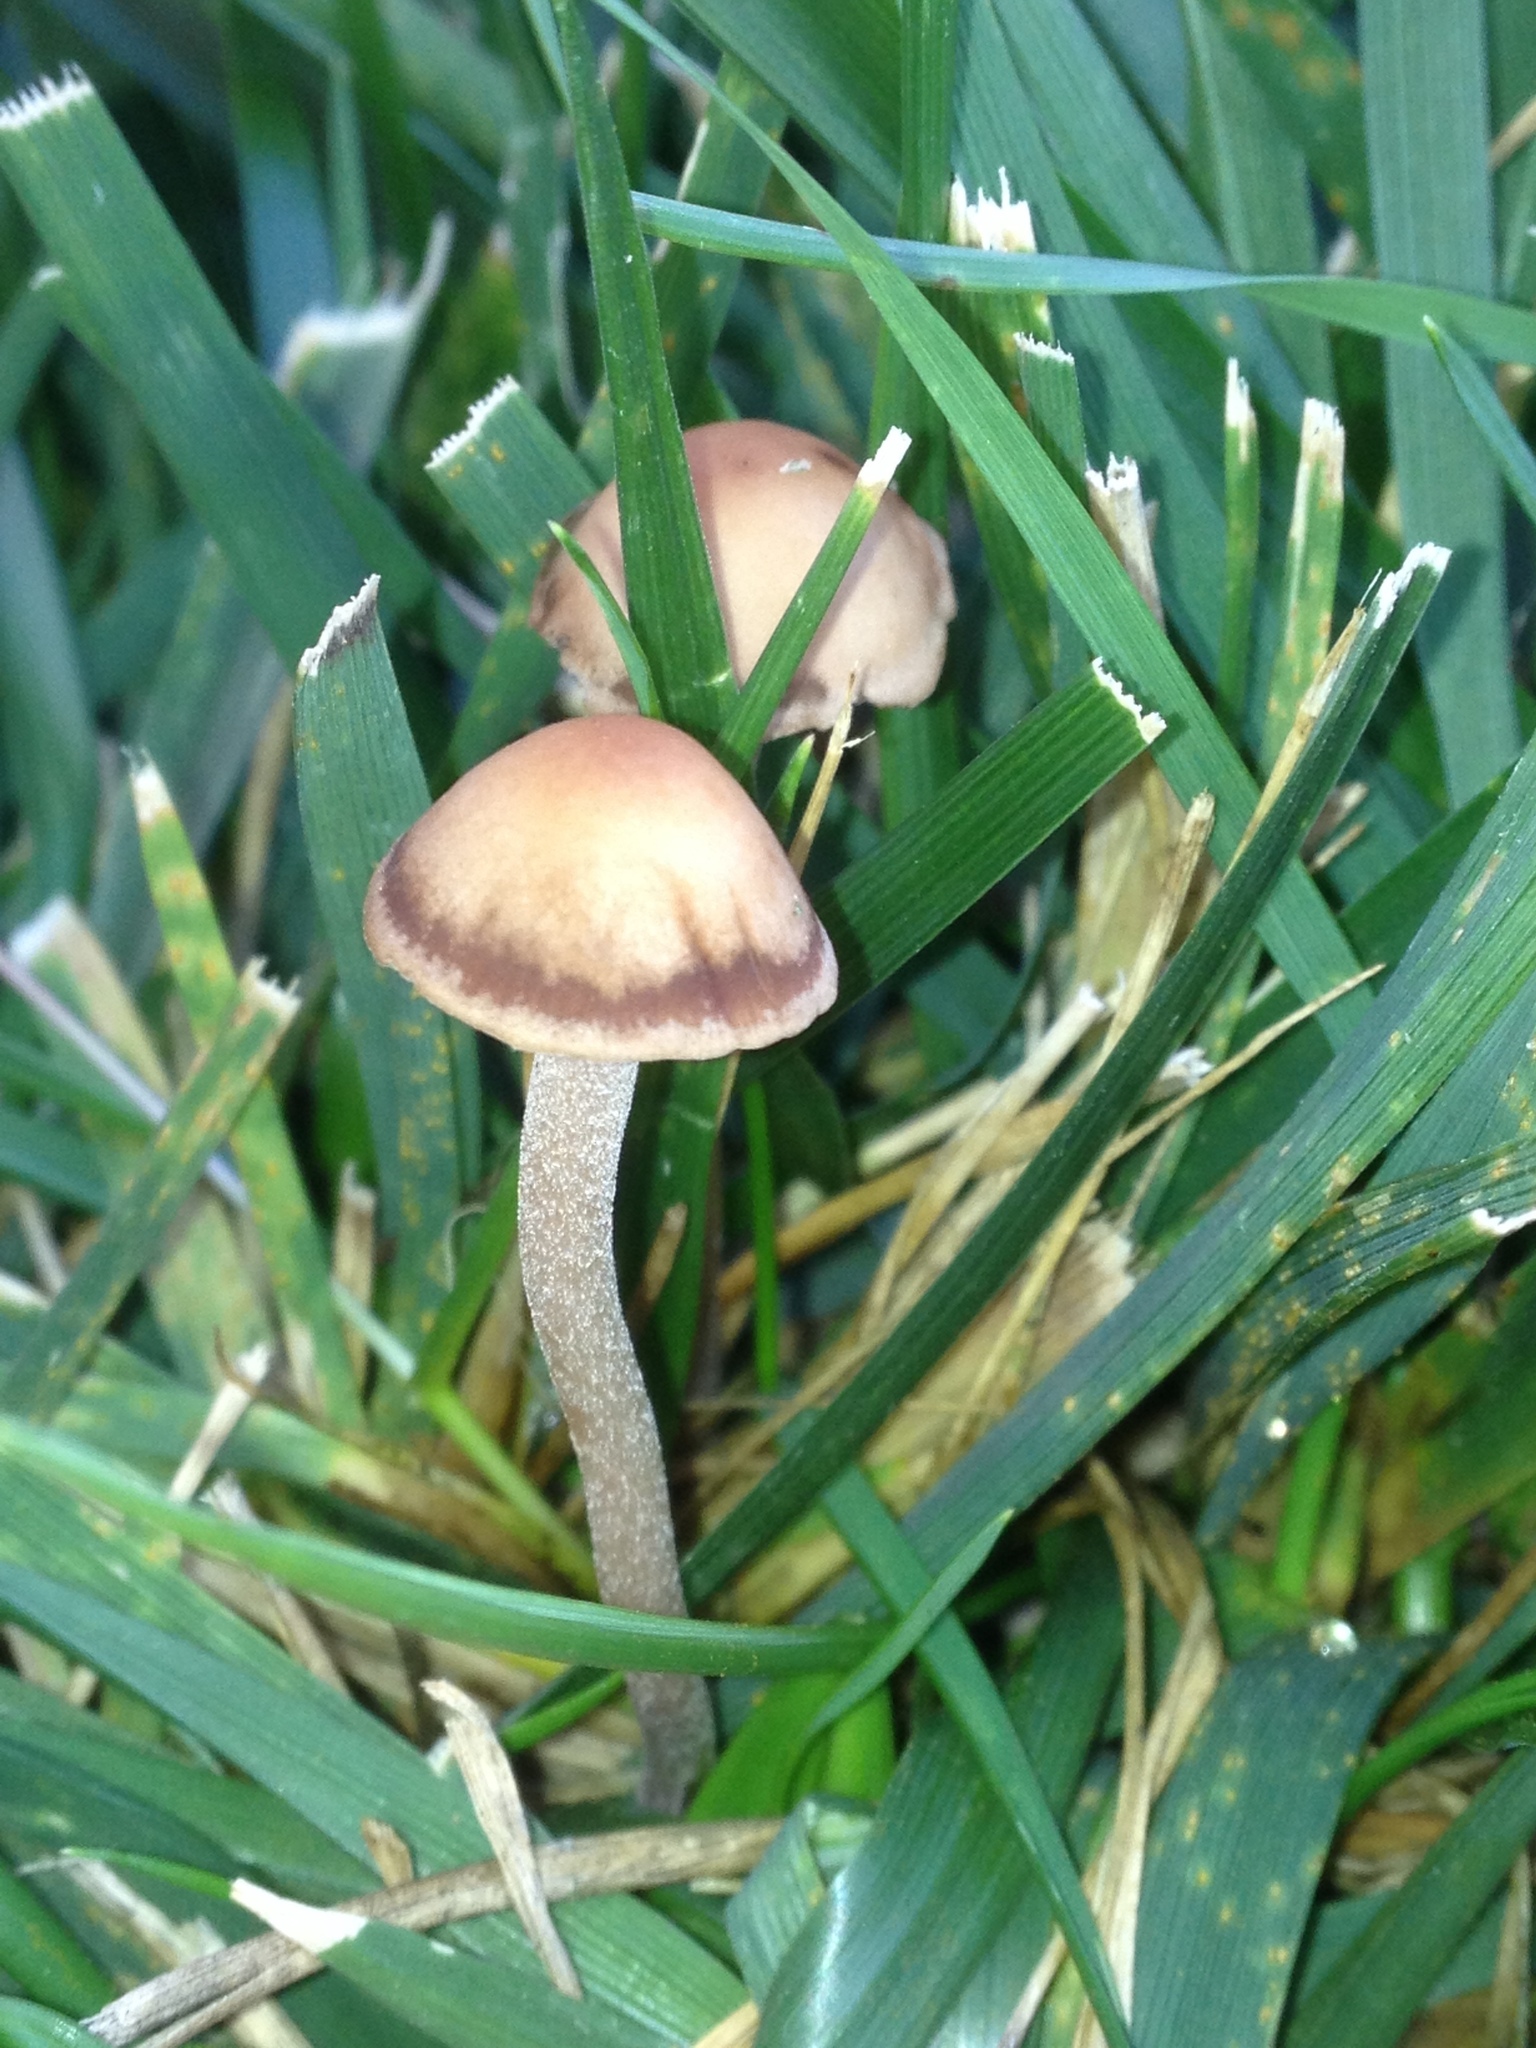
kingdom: Fungi
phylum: Basidiomycota
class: Agaricomycetes
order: Agaricales
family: Psathyrellaceae
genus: Candolleomyces
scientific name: Candolleomyces candolleanus
